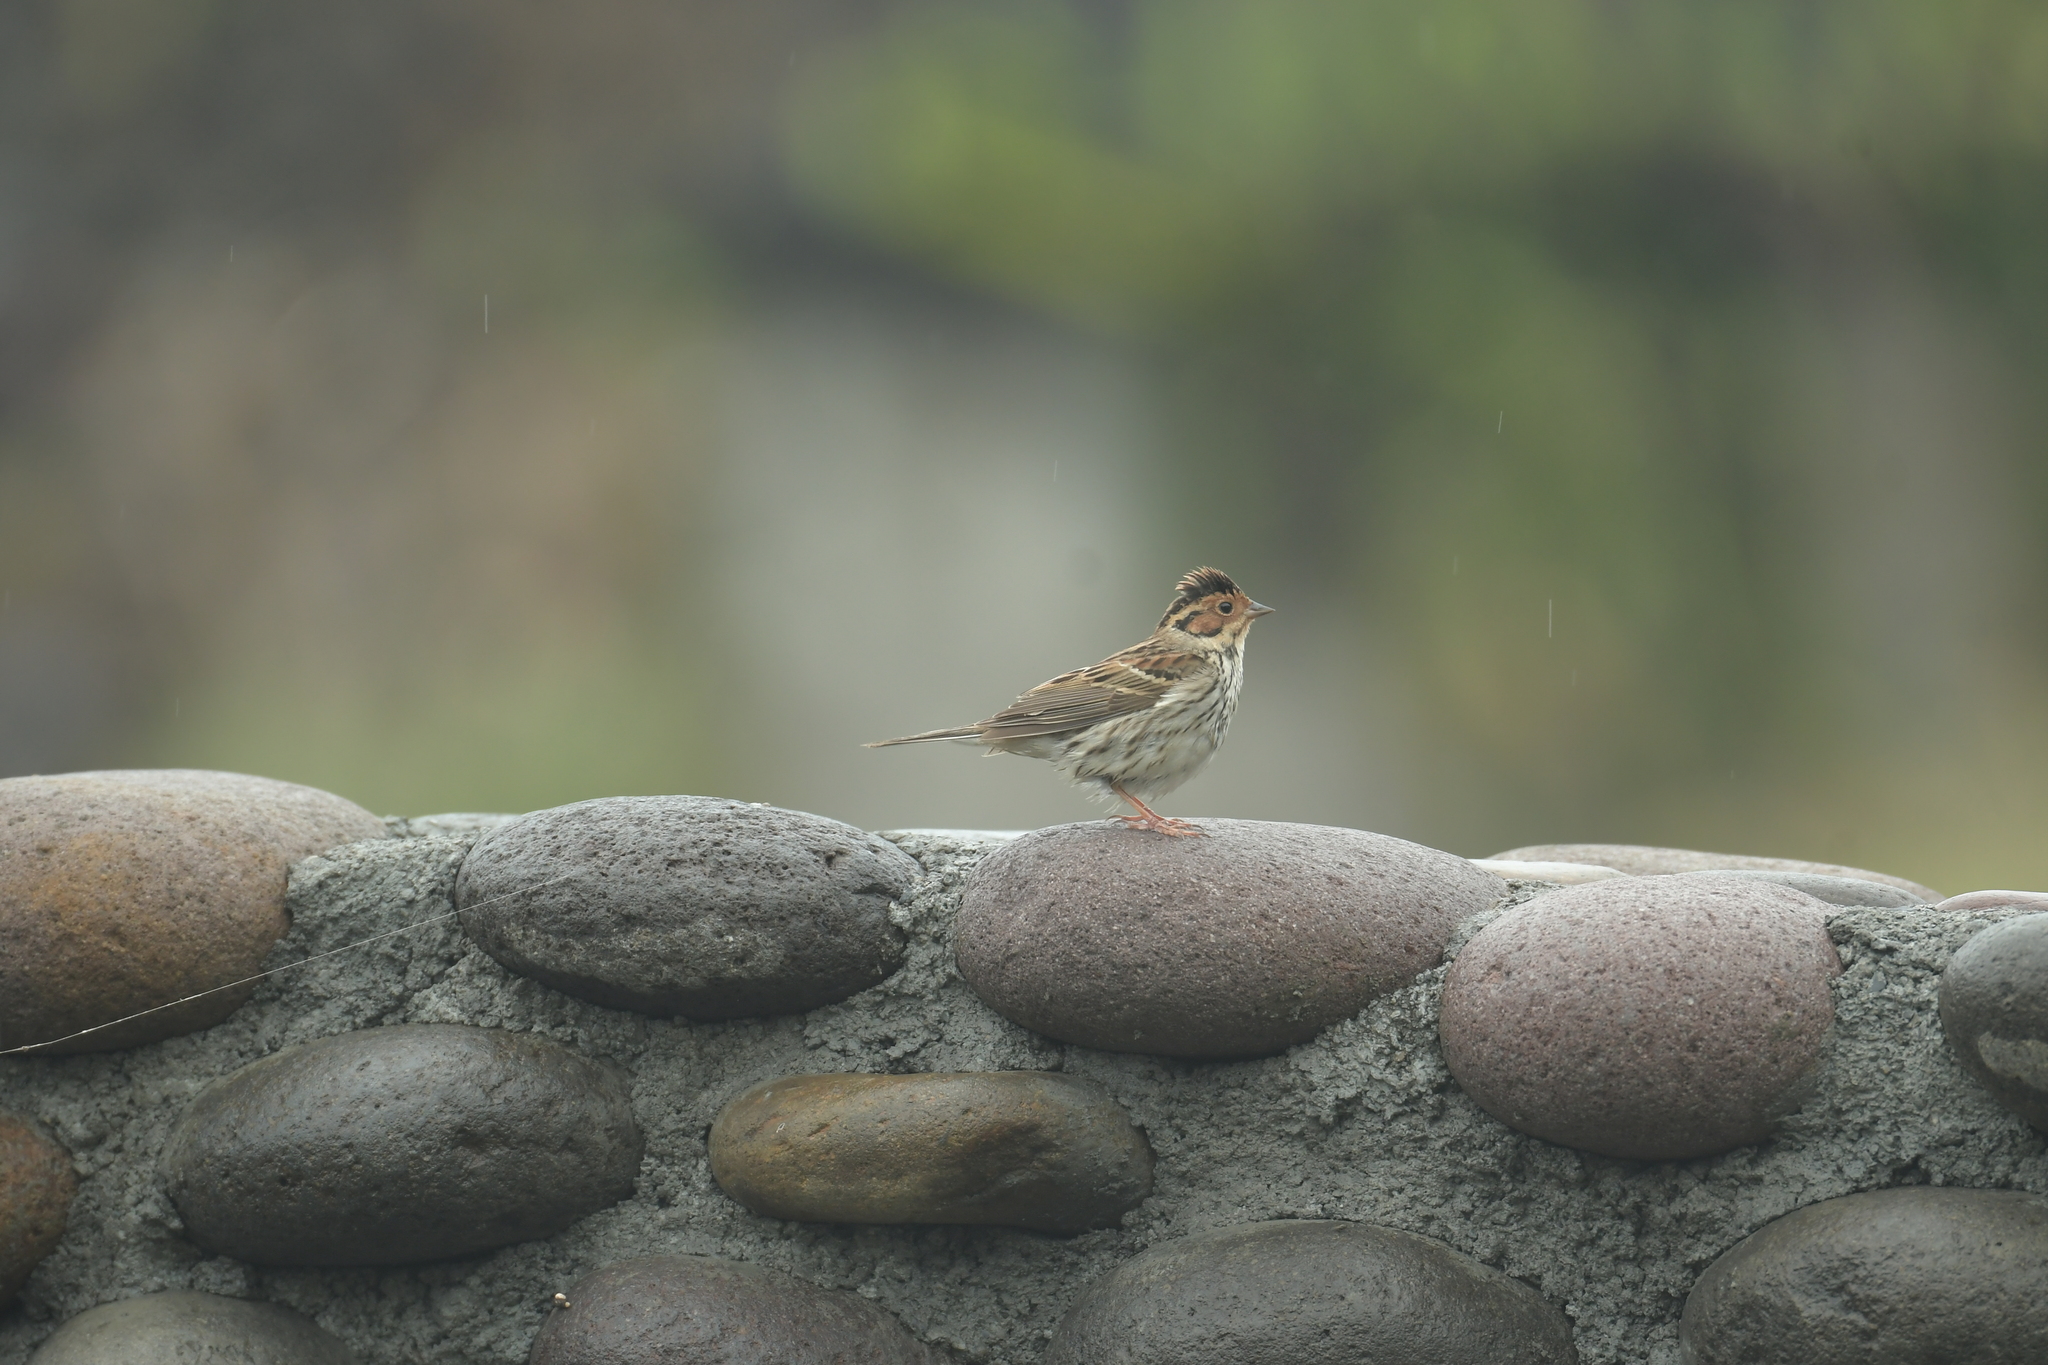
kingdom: Animalia
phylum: Chordata
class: Aves
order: Passeriformes
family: Emberizidae
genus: Emberiza
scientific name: Emberiza pusilla
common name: Little bunting
